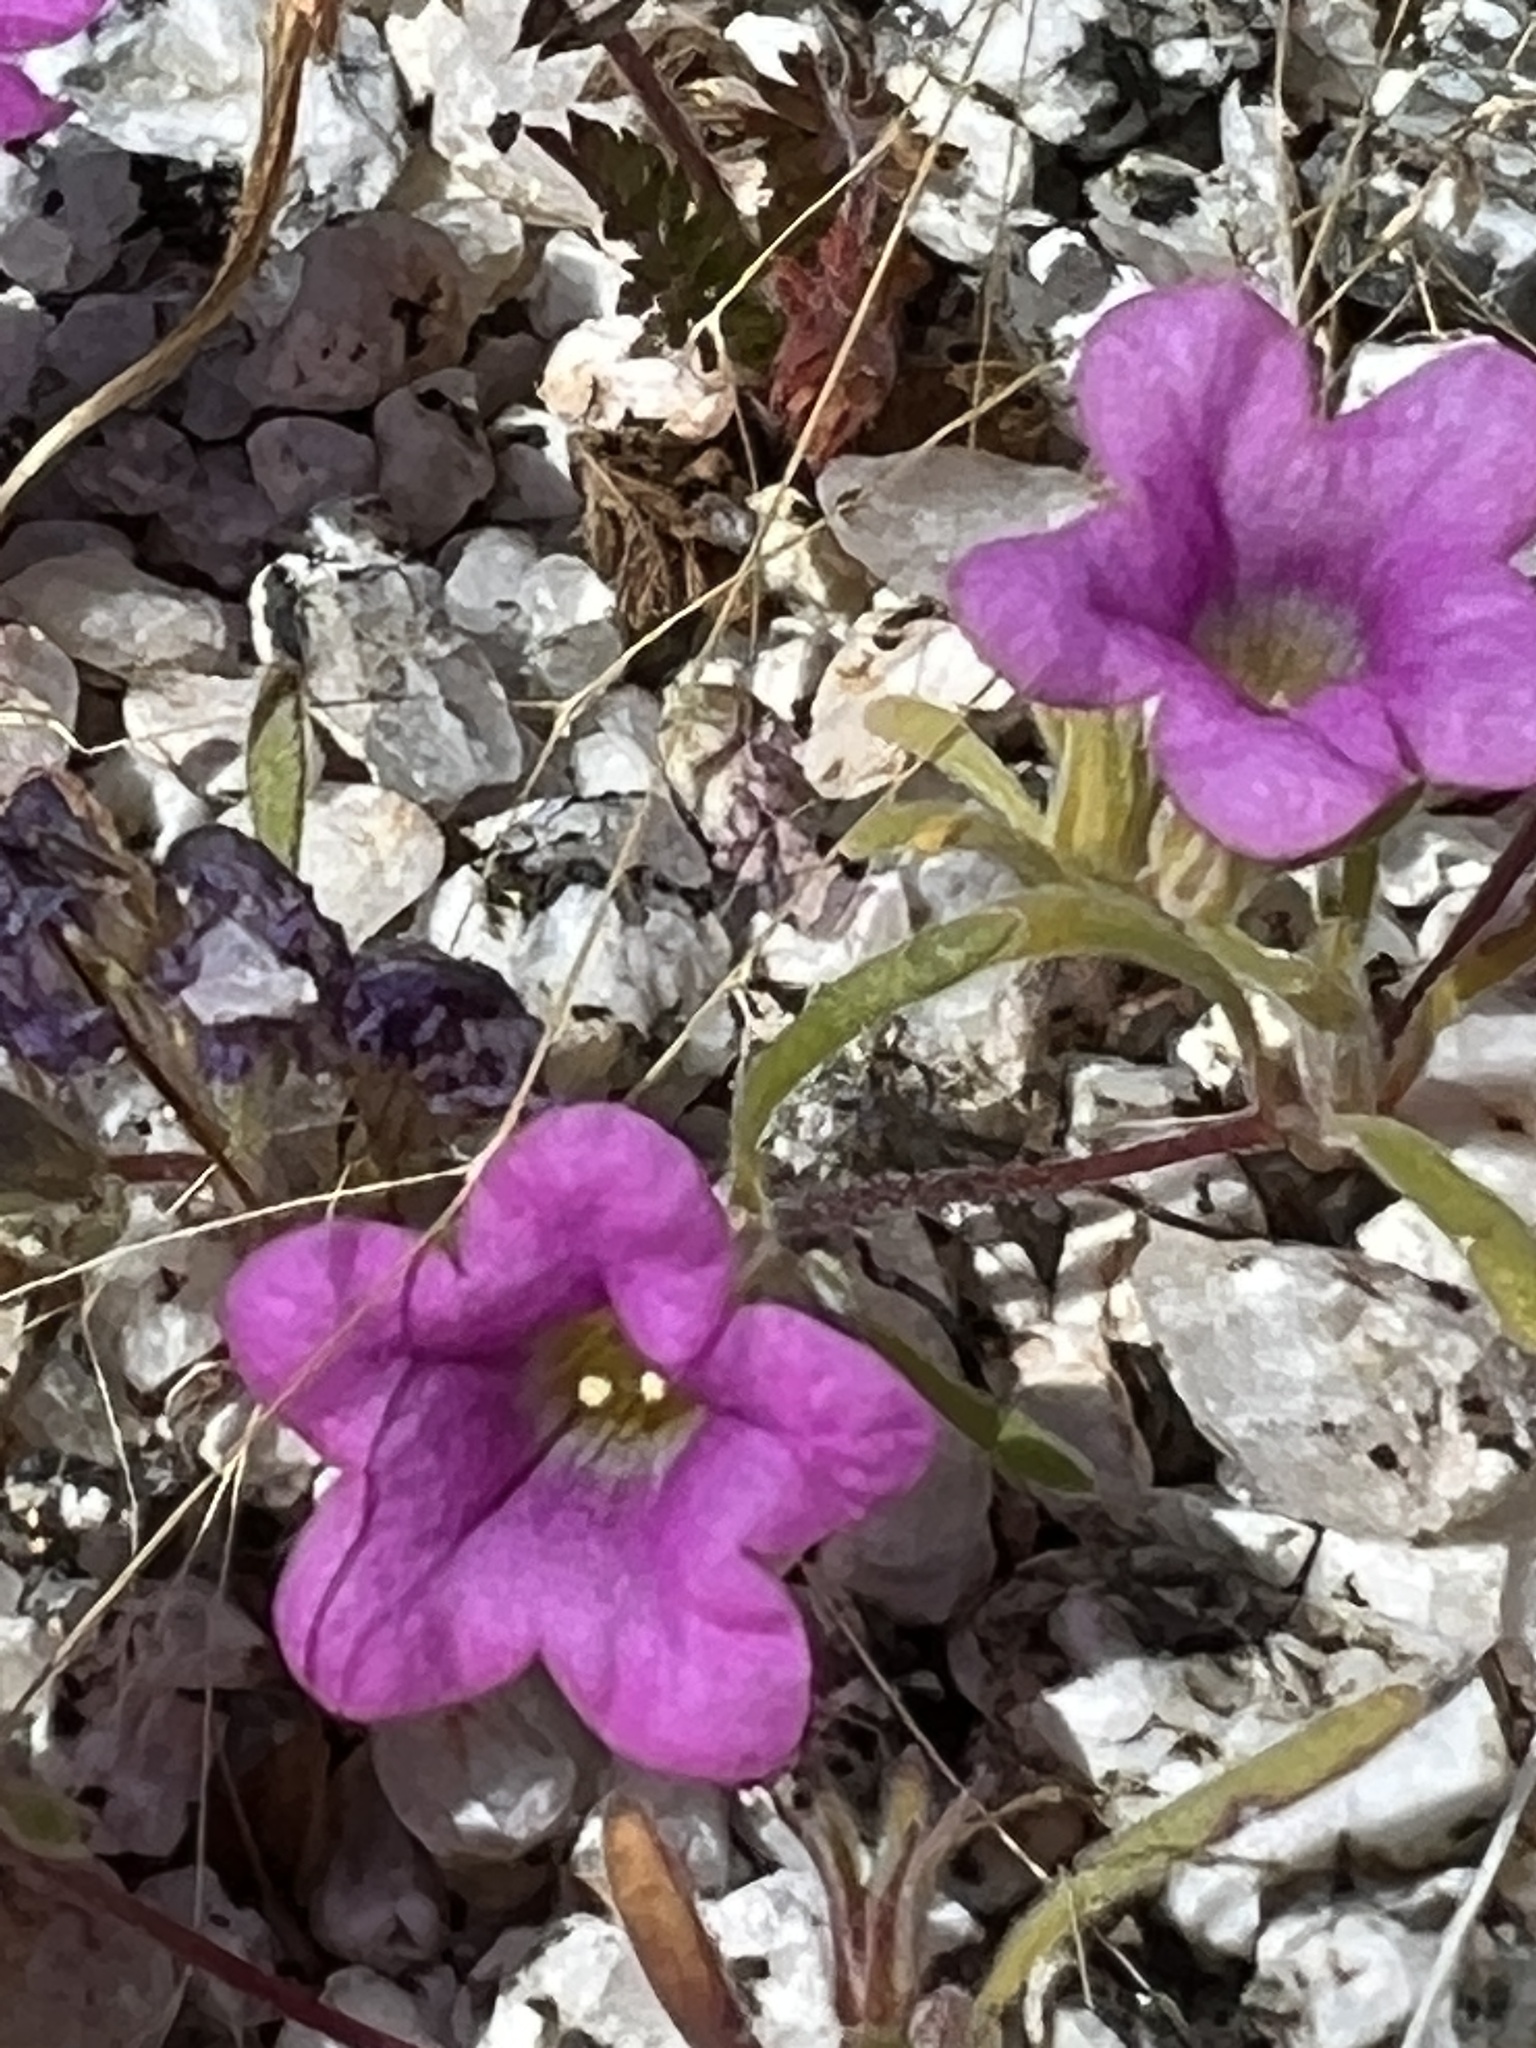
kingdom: Plantae
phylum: Tracheophyta
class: Magnoliopsida
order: Boraginales
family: Namaceae
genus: Nama
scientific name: Nama demissa
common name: Leafy nama
